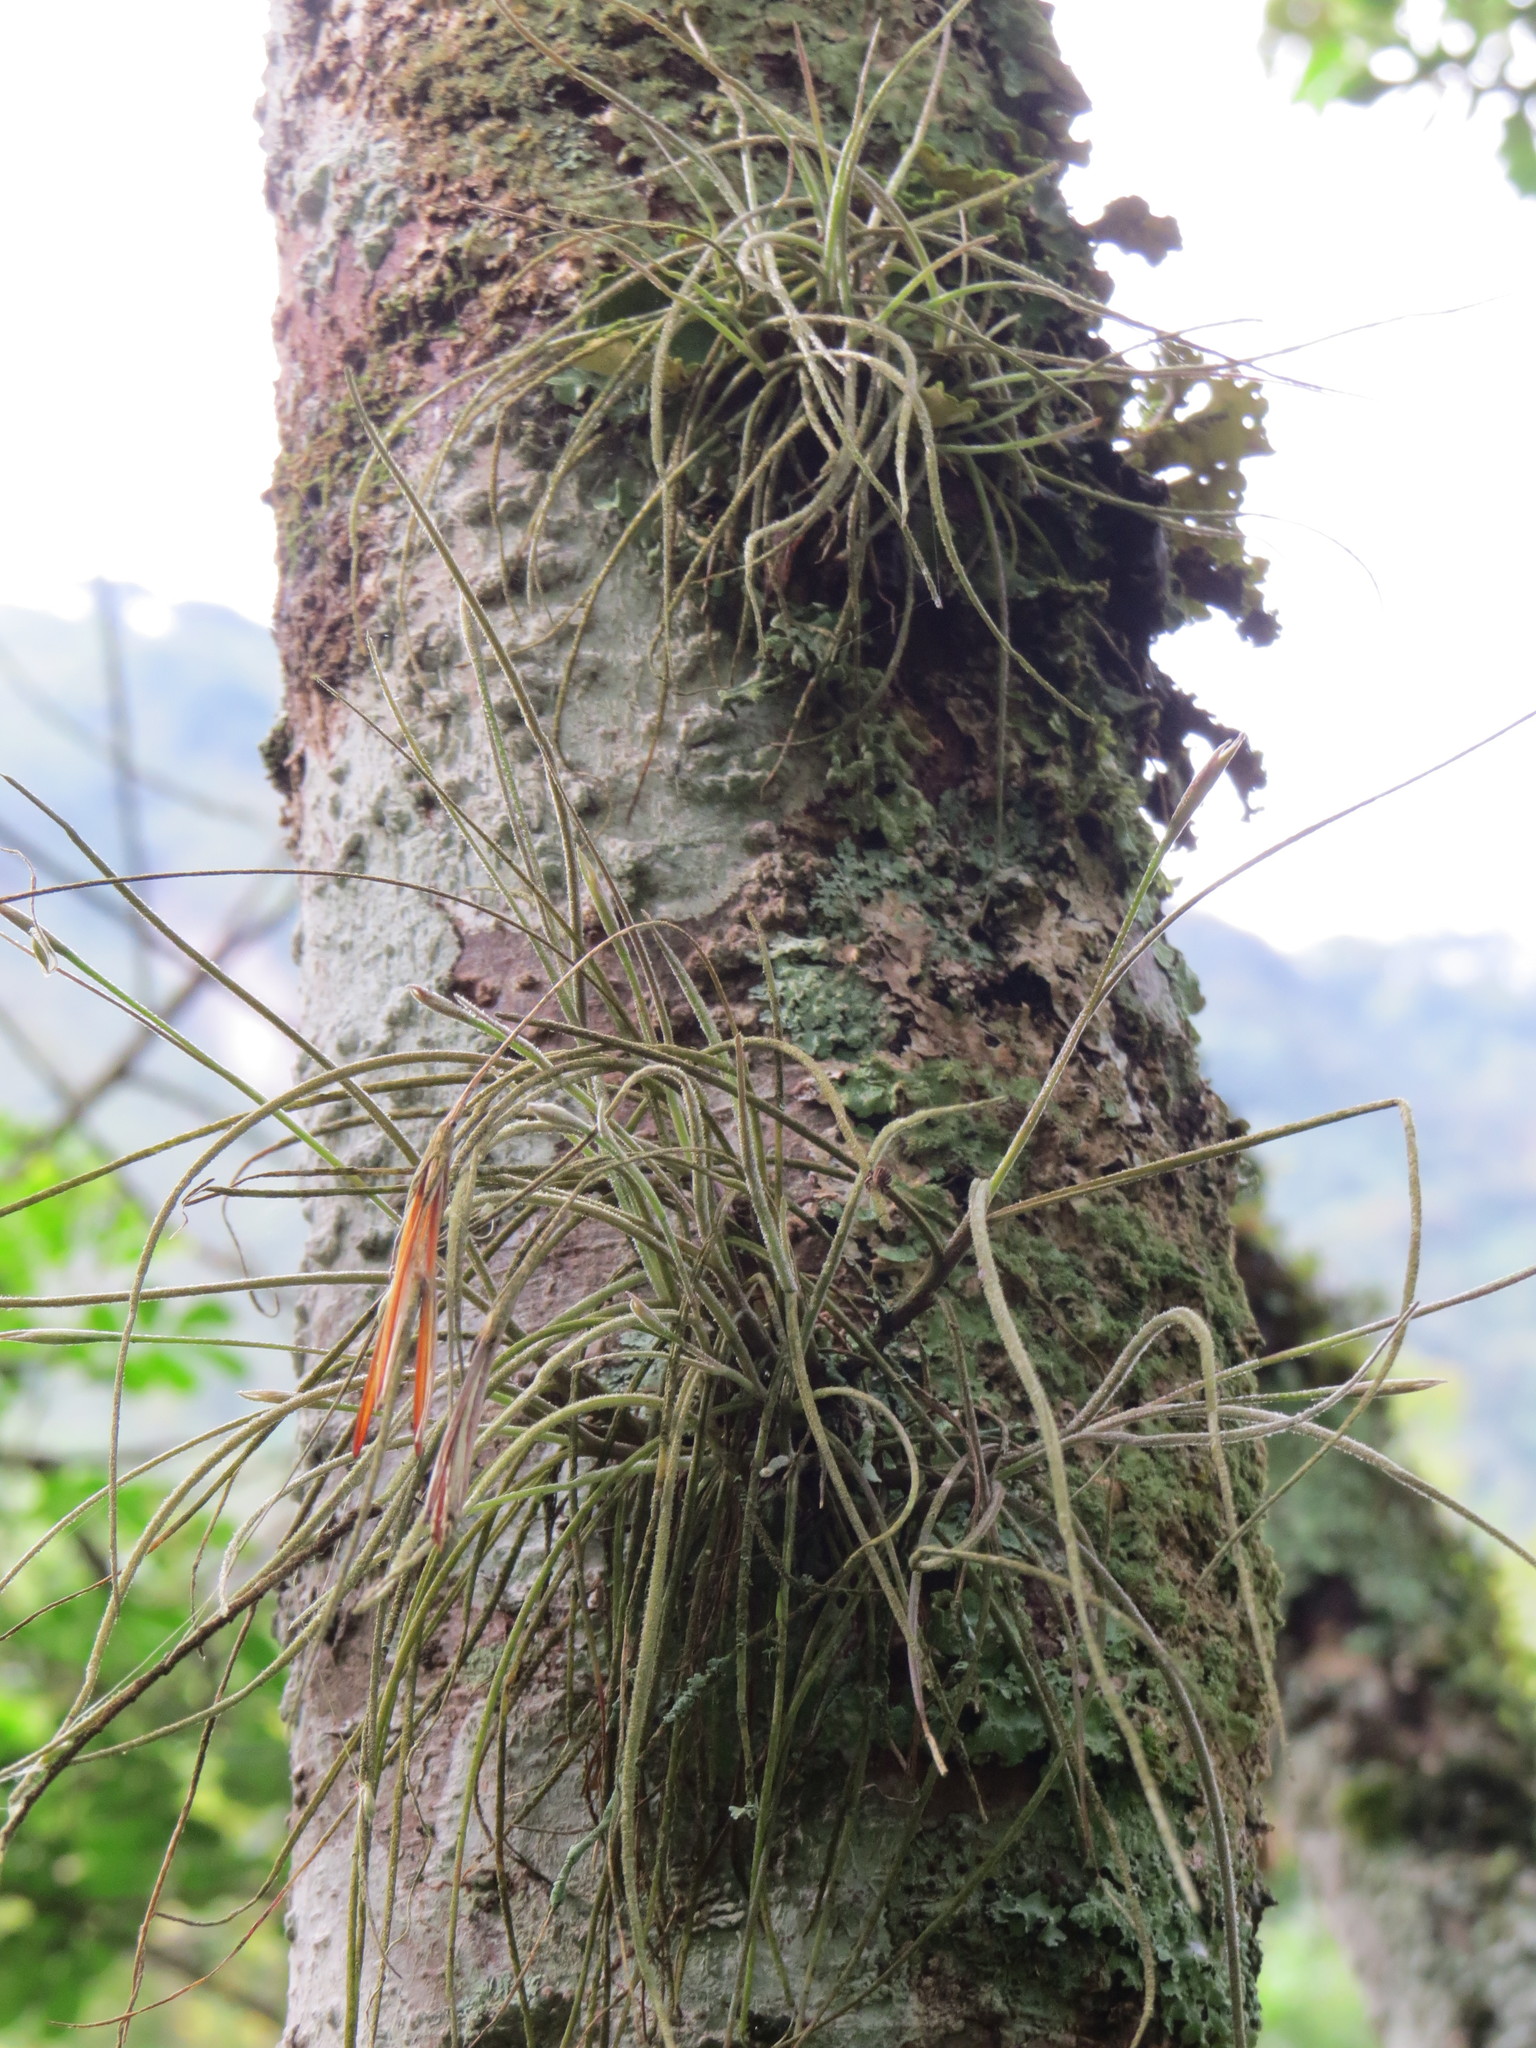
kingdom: Plantae
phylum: Tracheophyta
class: Liliopsida
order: Poales
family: Bromeliaceae
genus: Tillandsia
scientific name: Tillandsia recurvata
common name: Small ballmoss
